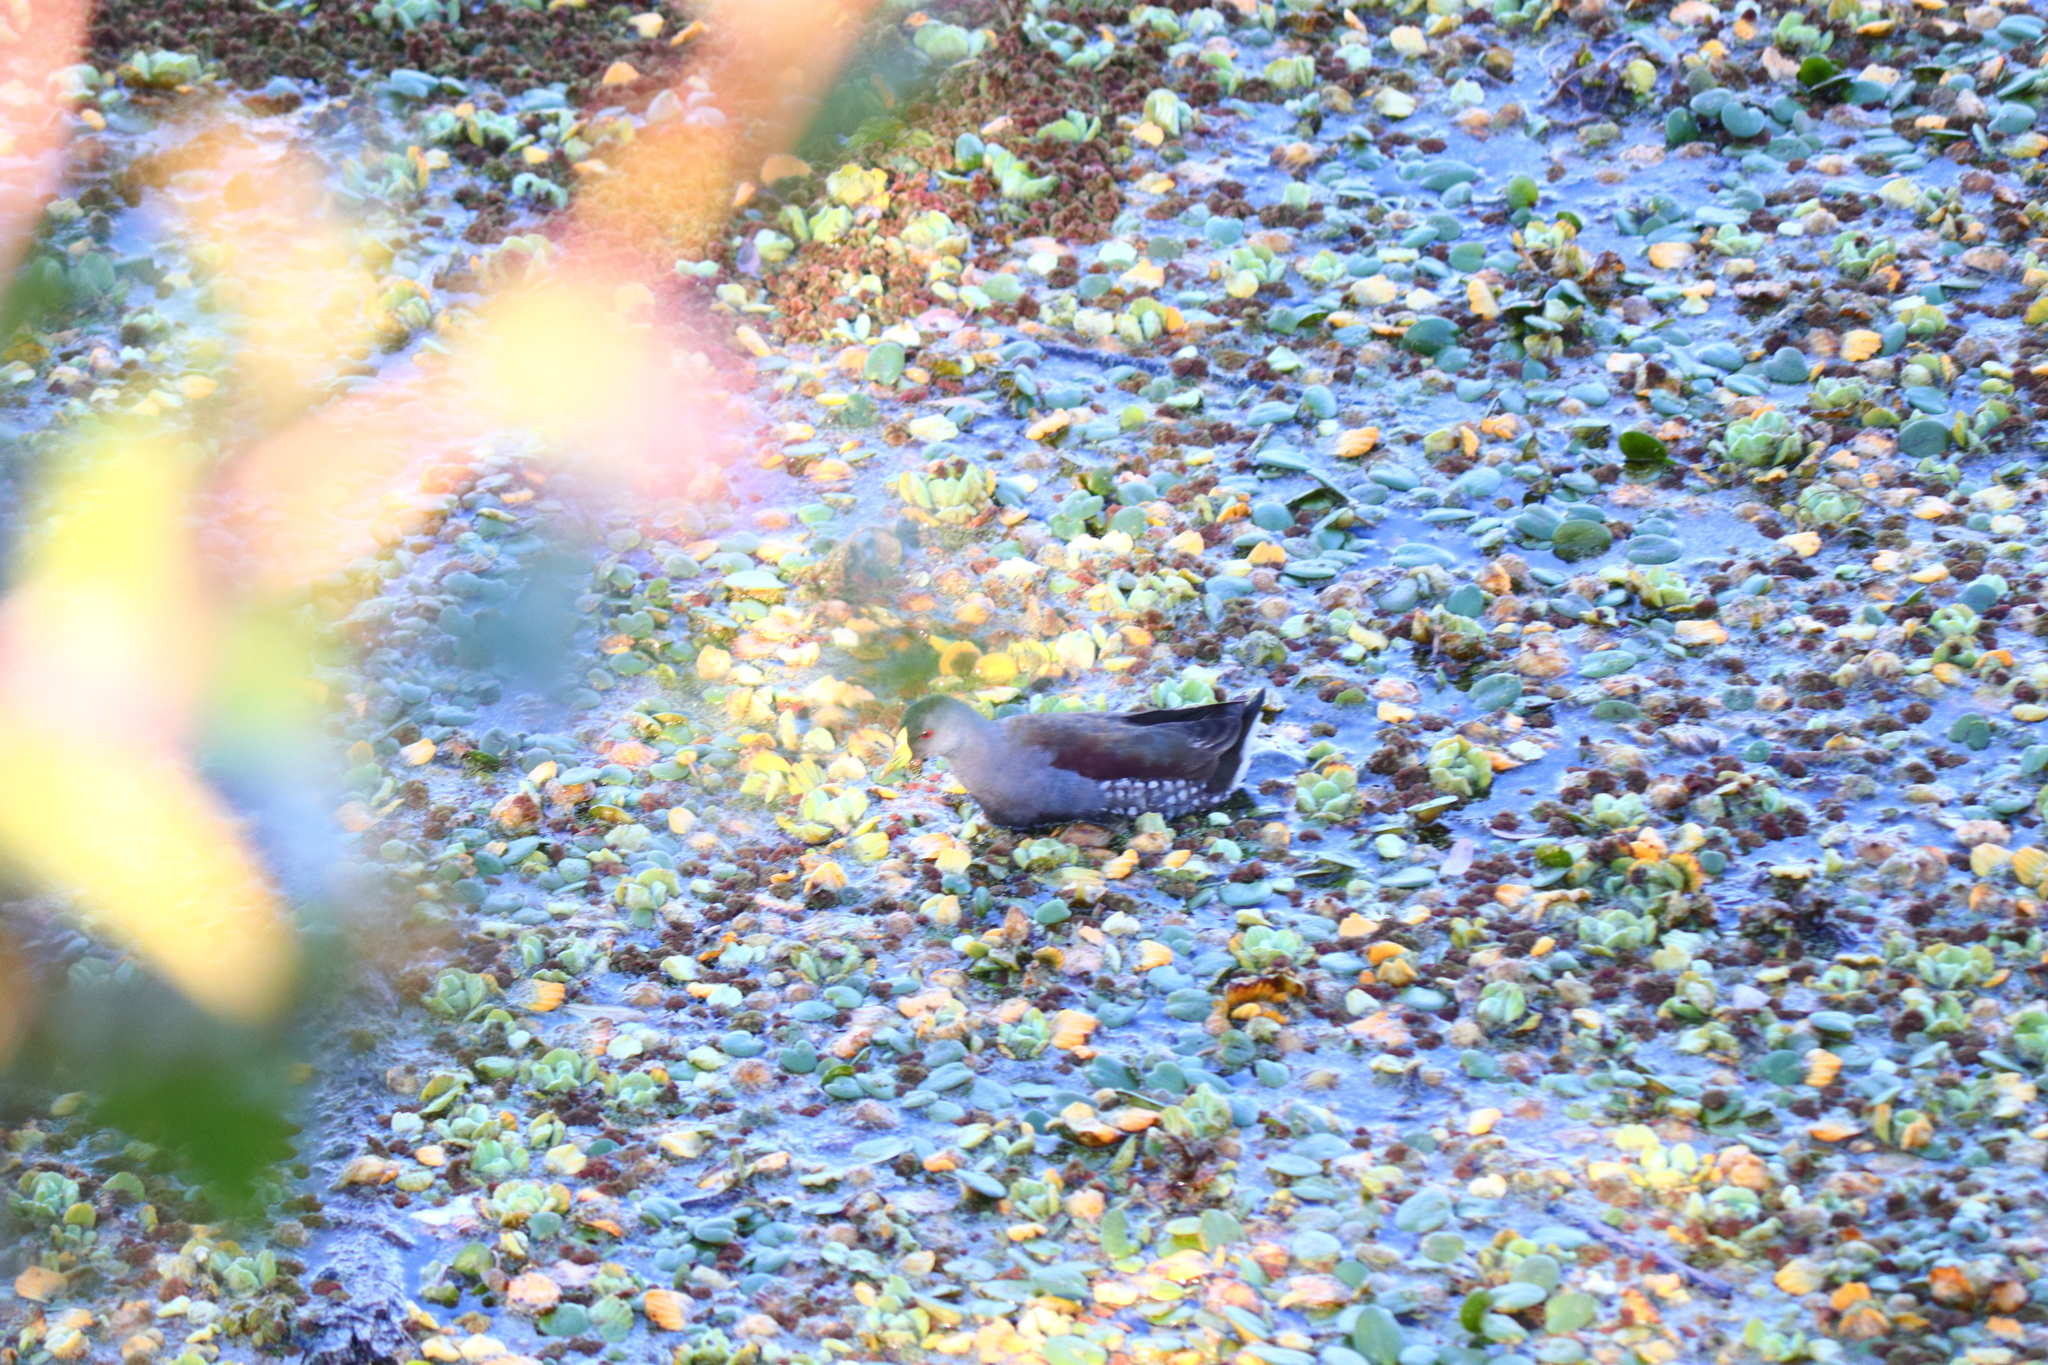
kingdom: Animalia
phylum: Chordata
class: Aves
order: Gruiformes
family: Rallidae
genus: Gallinula
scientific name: Gallinula melanops
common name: Spot-flanked gallinule
